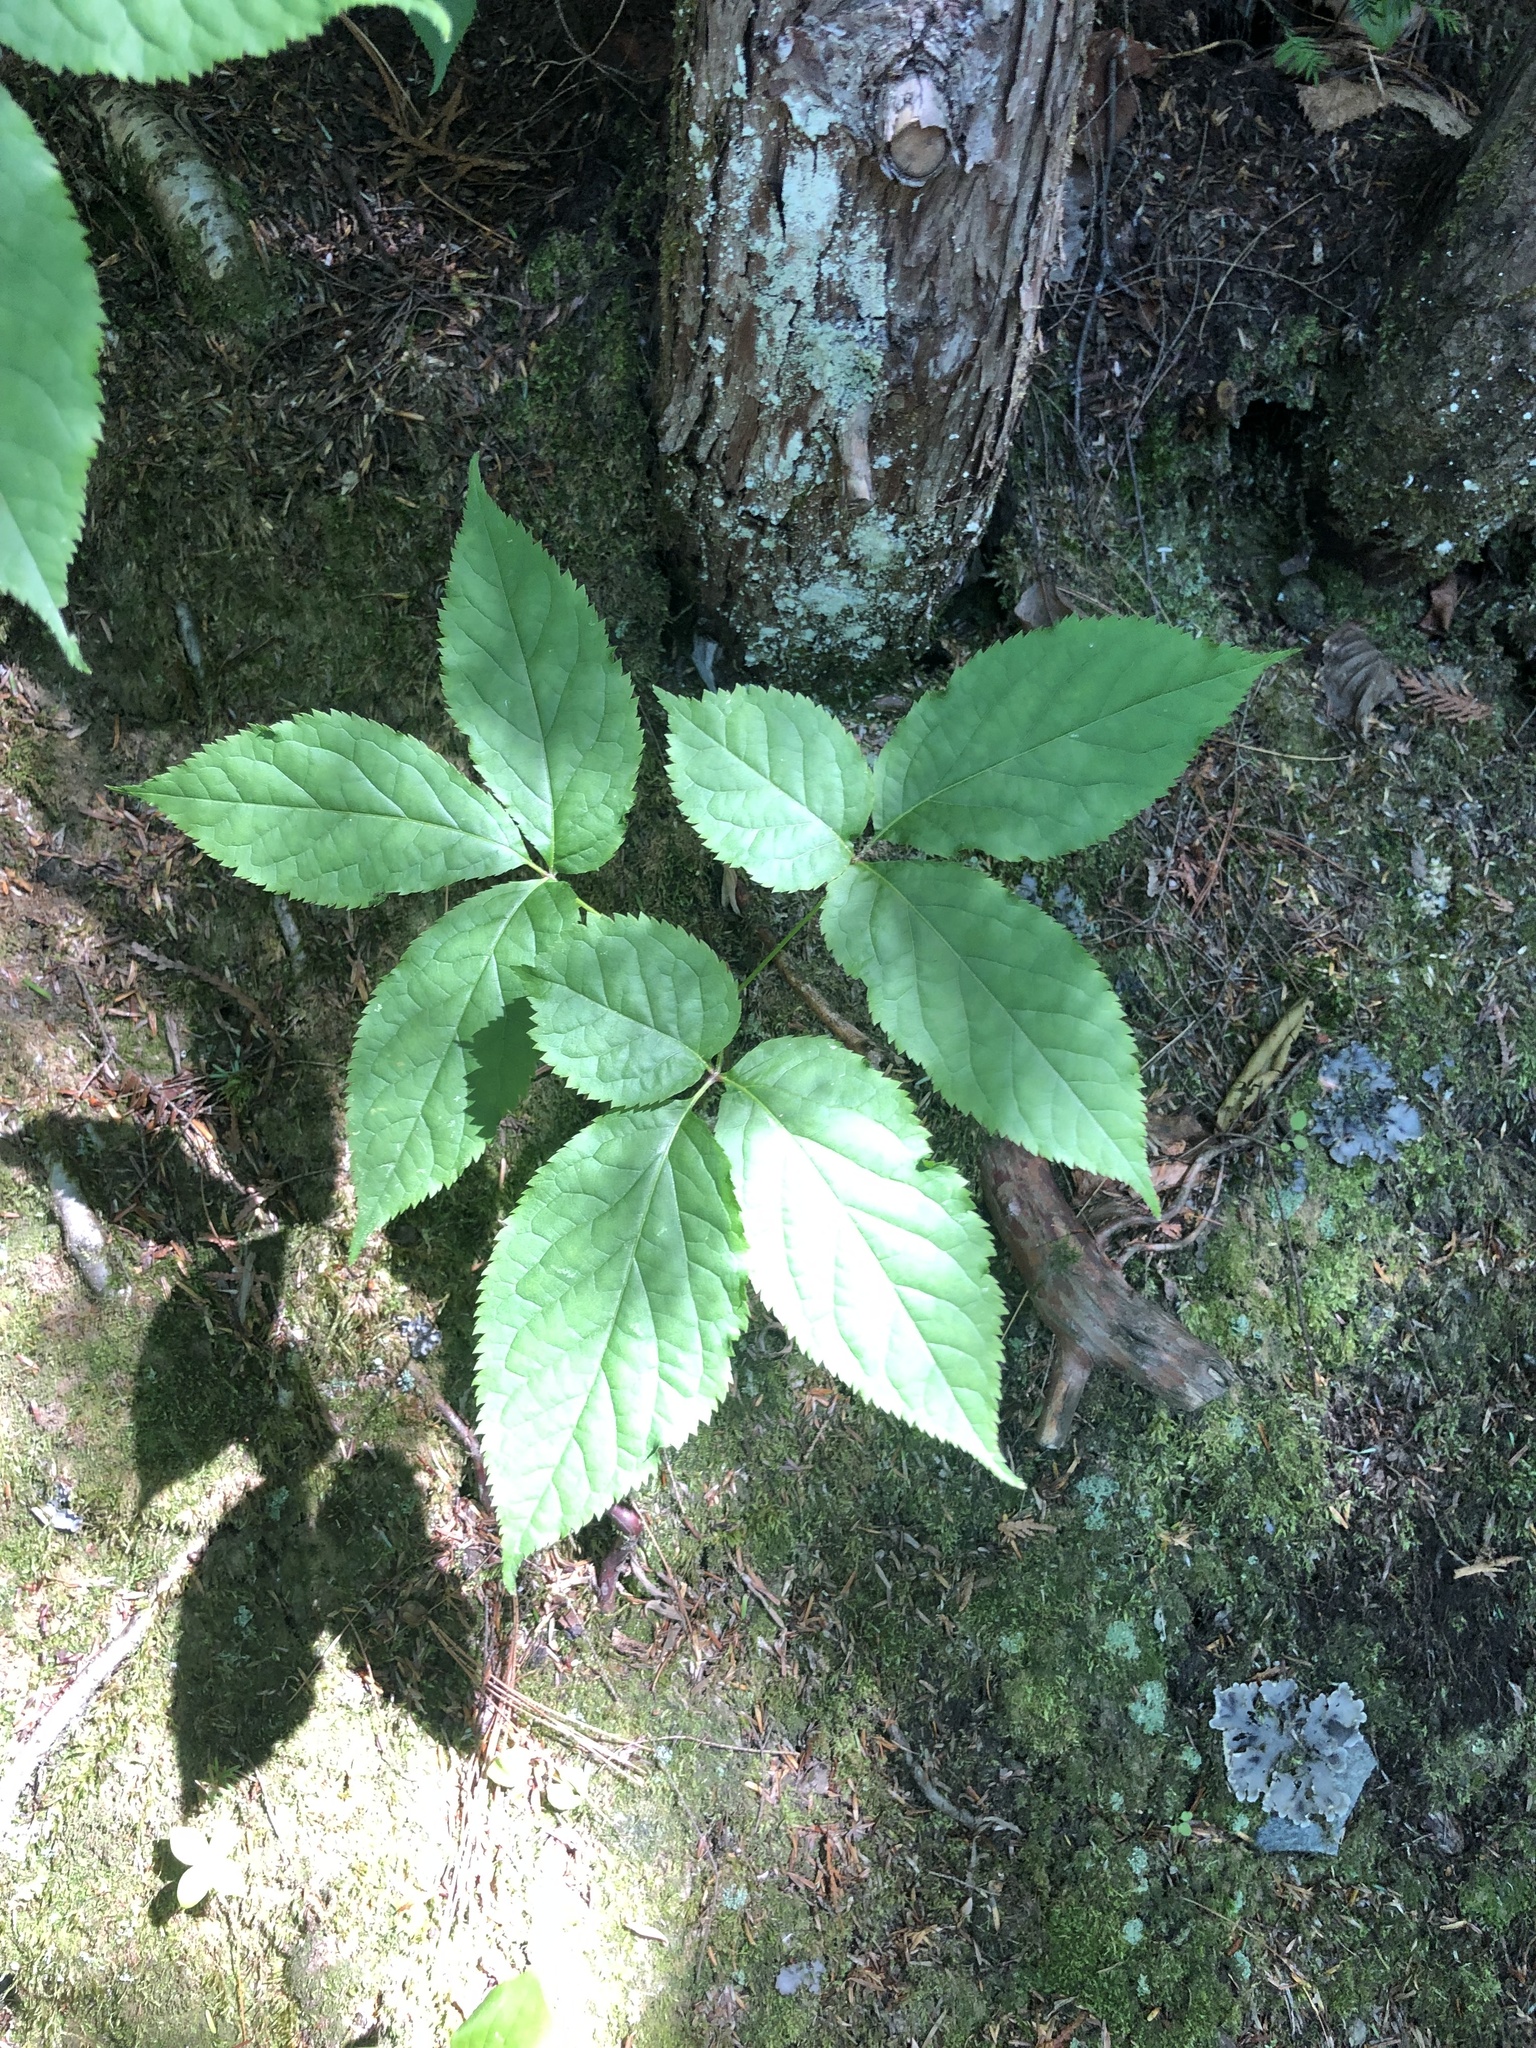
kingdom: Plantae
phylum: Tracheophyta
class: Magnoliopsida
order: Apiales
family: Araliaceae
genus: Aralia
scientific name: Aralia nudicaulis
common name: Wild sarsaparilla
